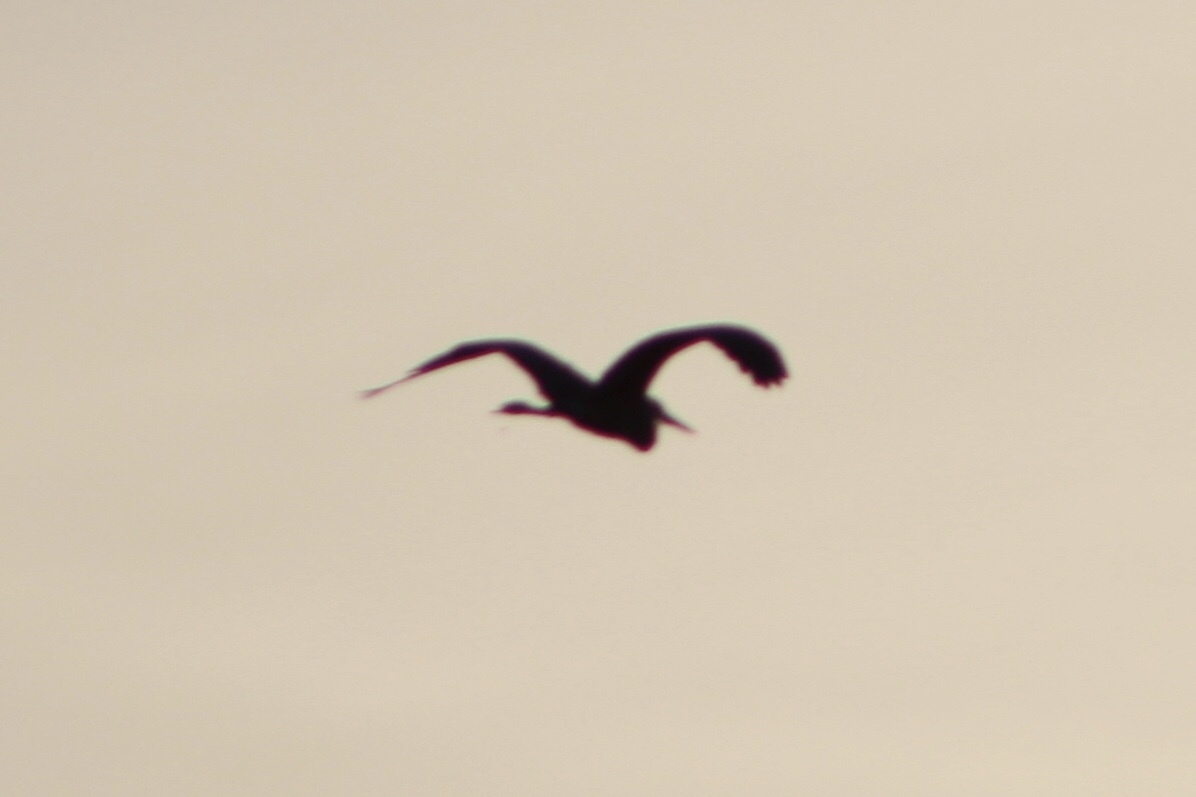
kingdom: Animalia
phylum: Chordata
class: Aves
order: Pelecaniformes
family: Ardeidae
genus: Ardea
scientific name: Ardea herodias
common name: Great blue heron
